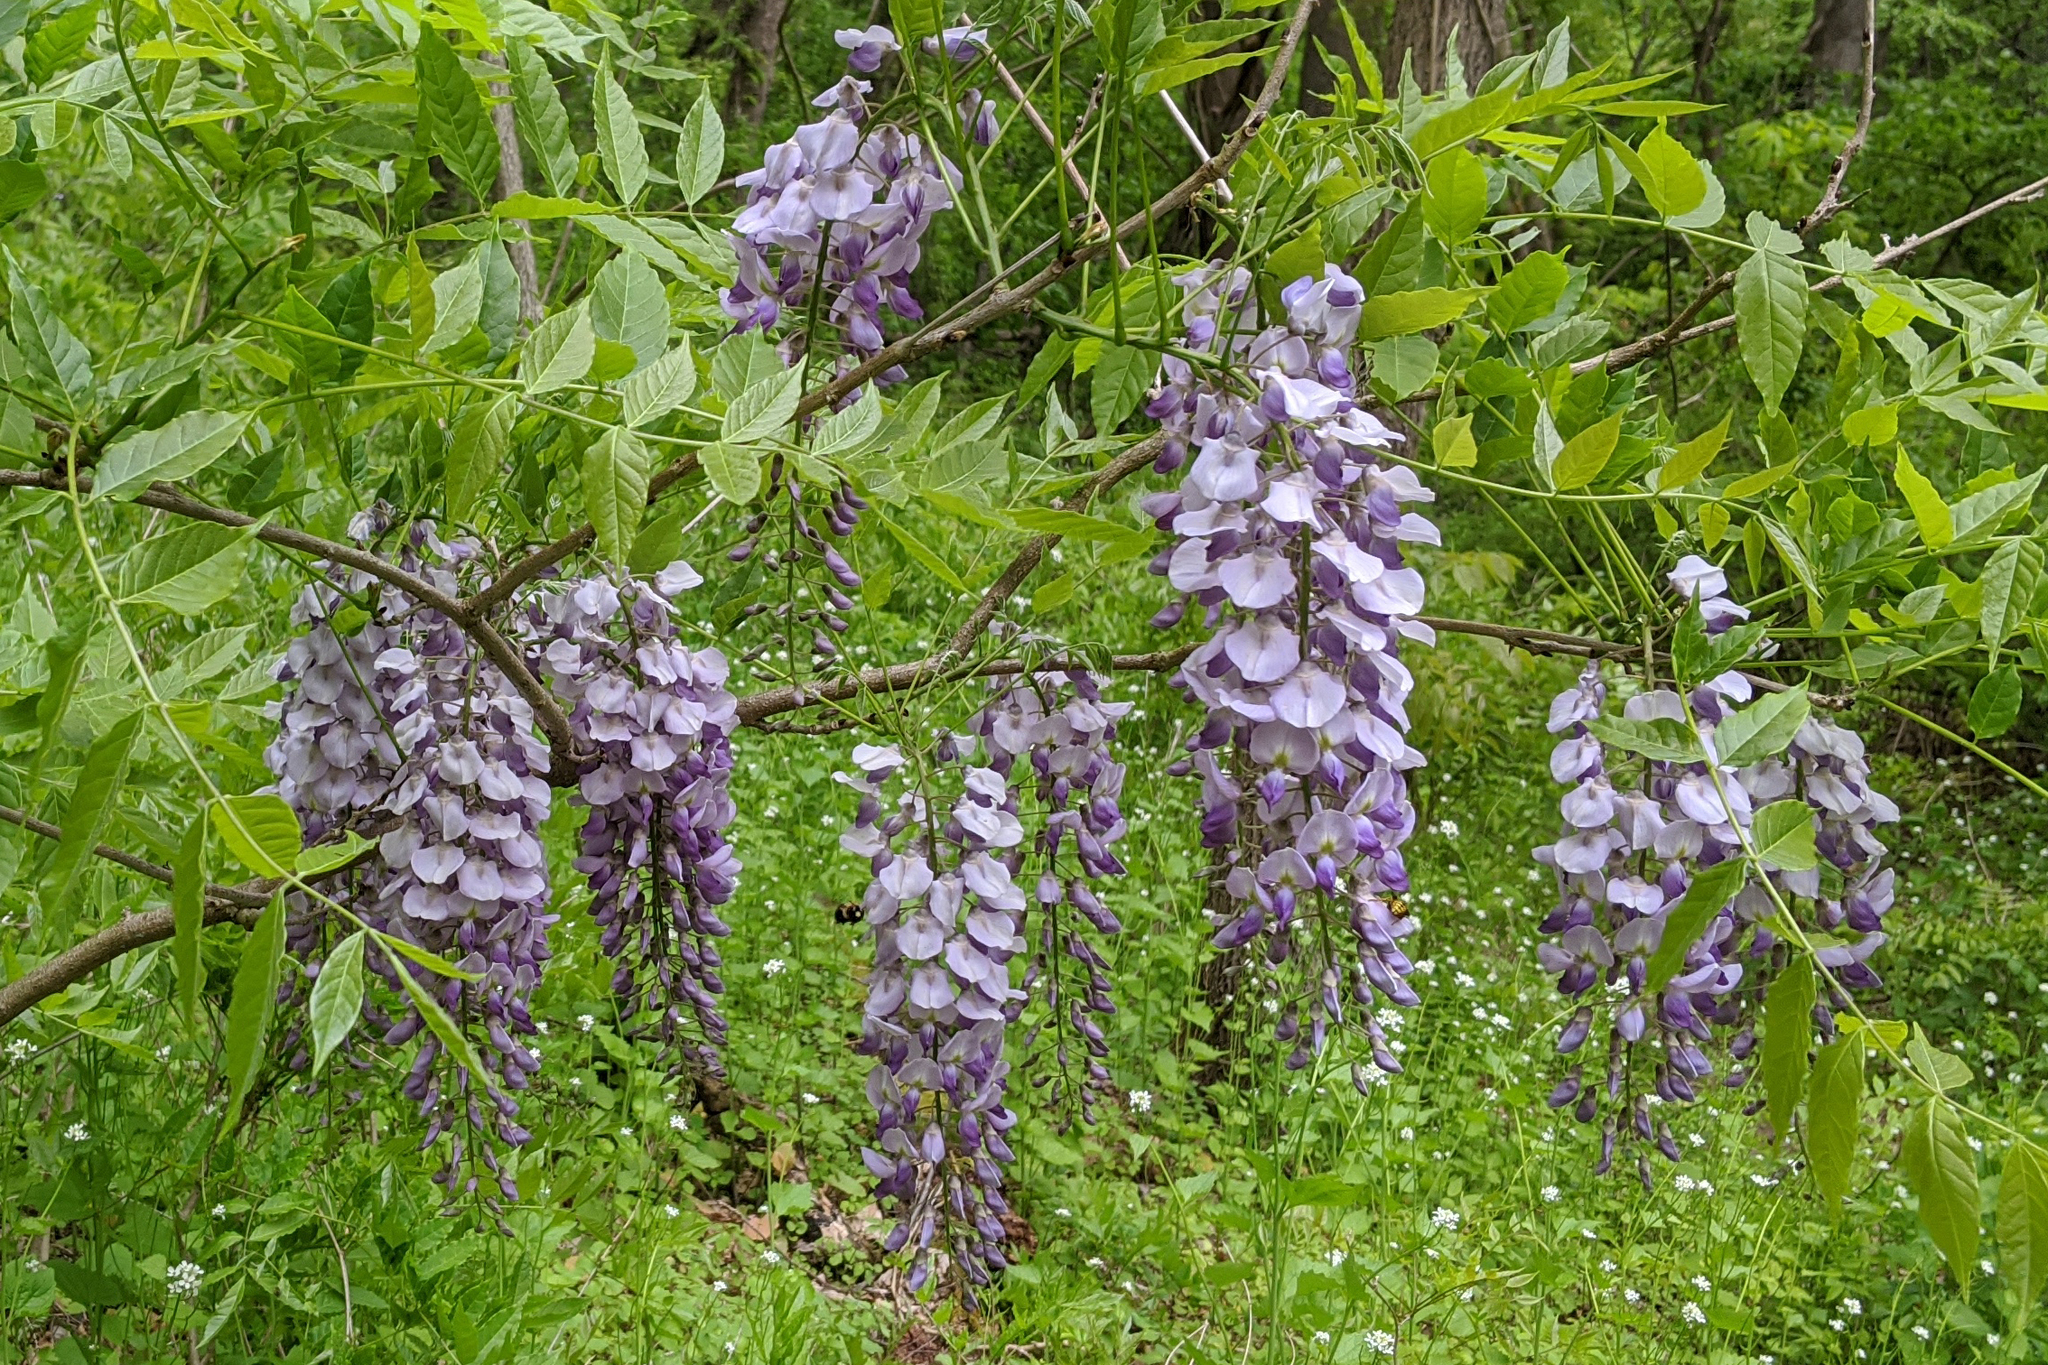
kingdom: Plantae
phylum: Tracheophyta
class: Magnoliopsida
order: Fabales
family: Fabaceae
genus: Wisteria
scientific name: Wisteria sinensis
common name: Chinese wisteria
